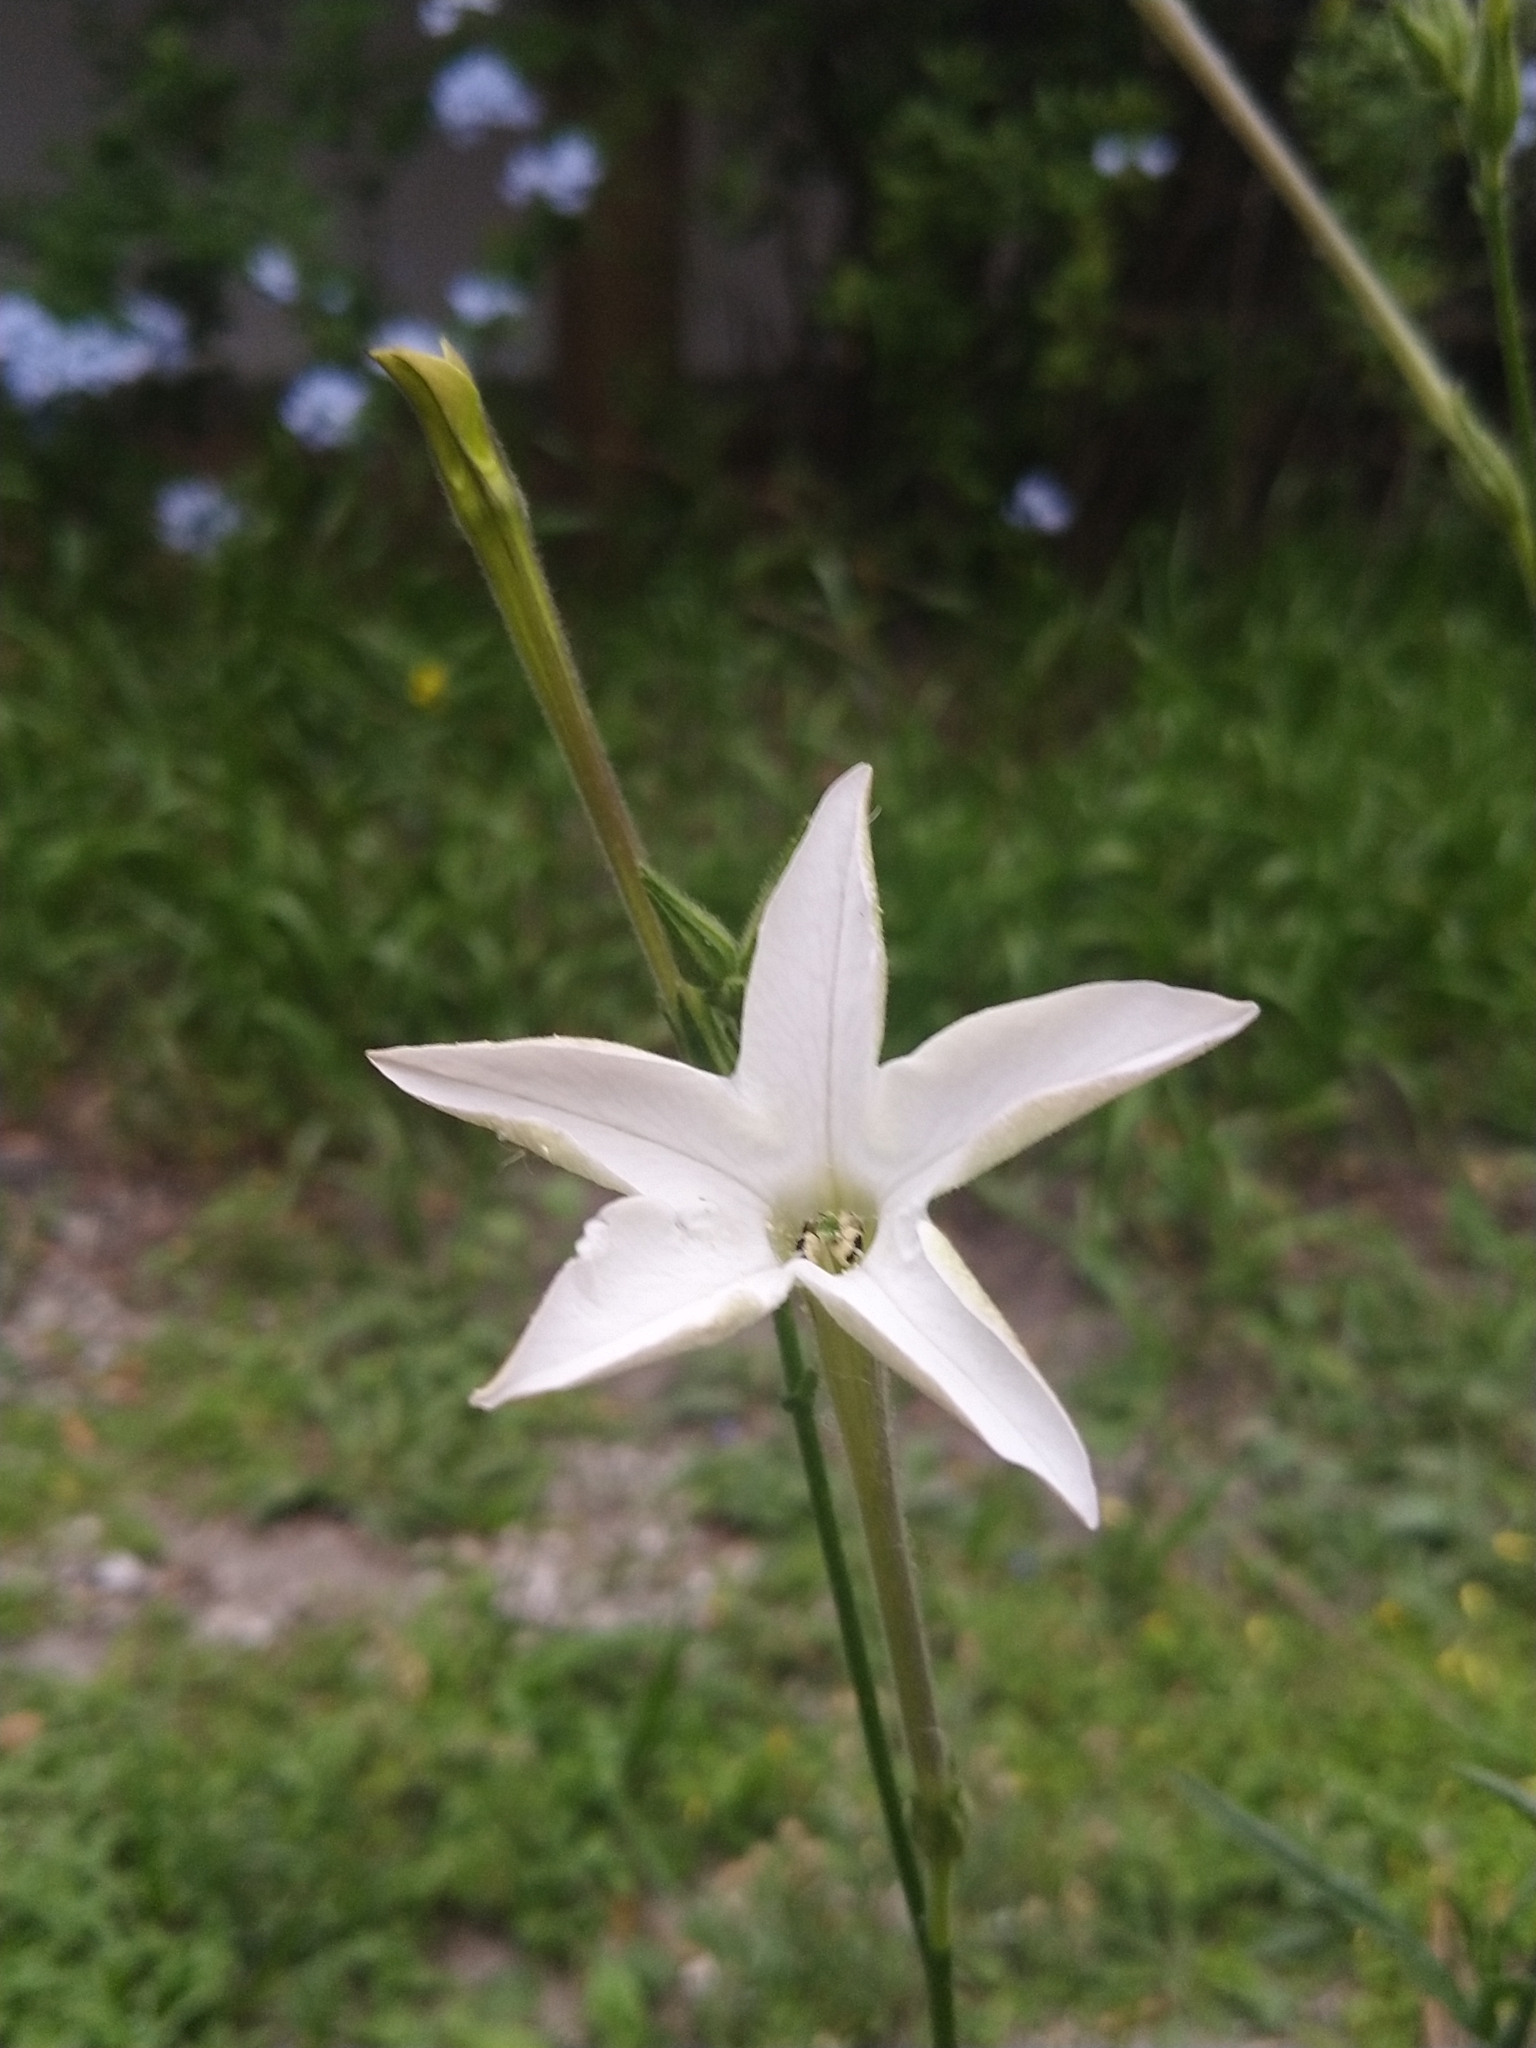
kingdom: Plantae
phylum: Tracheophyta
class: Magnoliopsida
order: Solanales
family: Solanaceae
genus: Nicotiana
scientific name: Nicotiana longiflora
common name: Long-flowered tobacco
